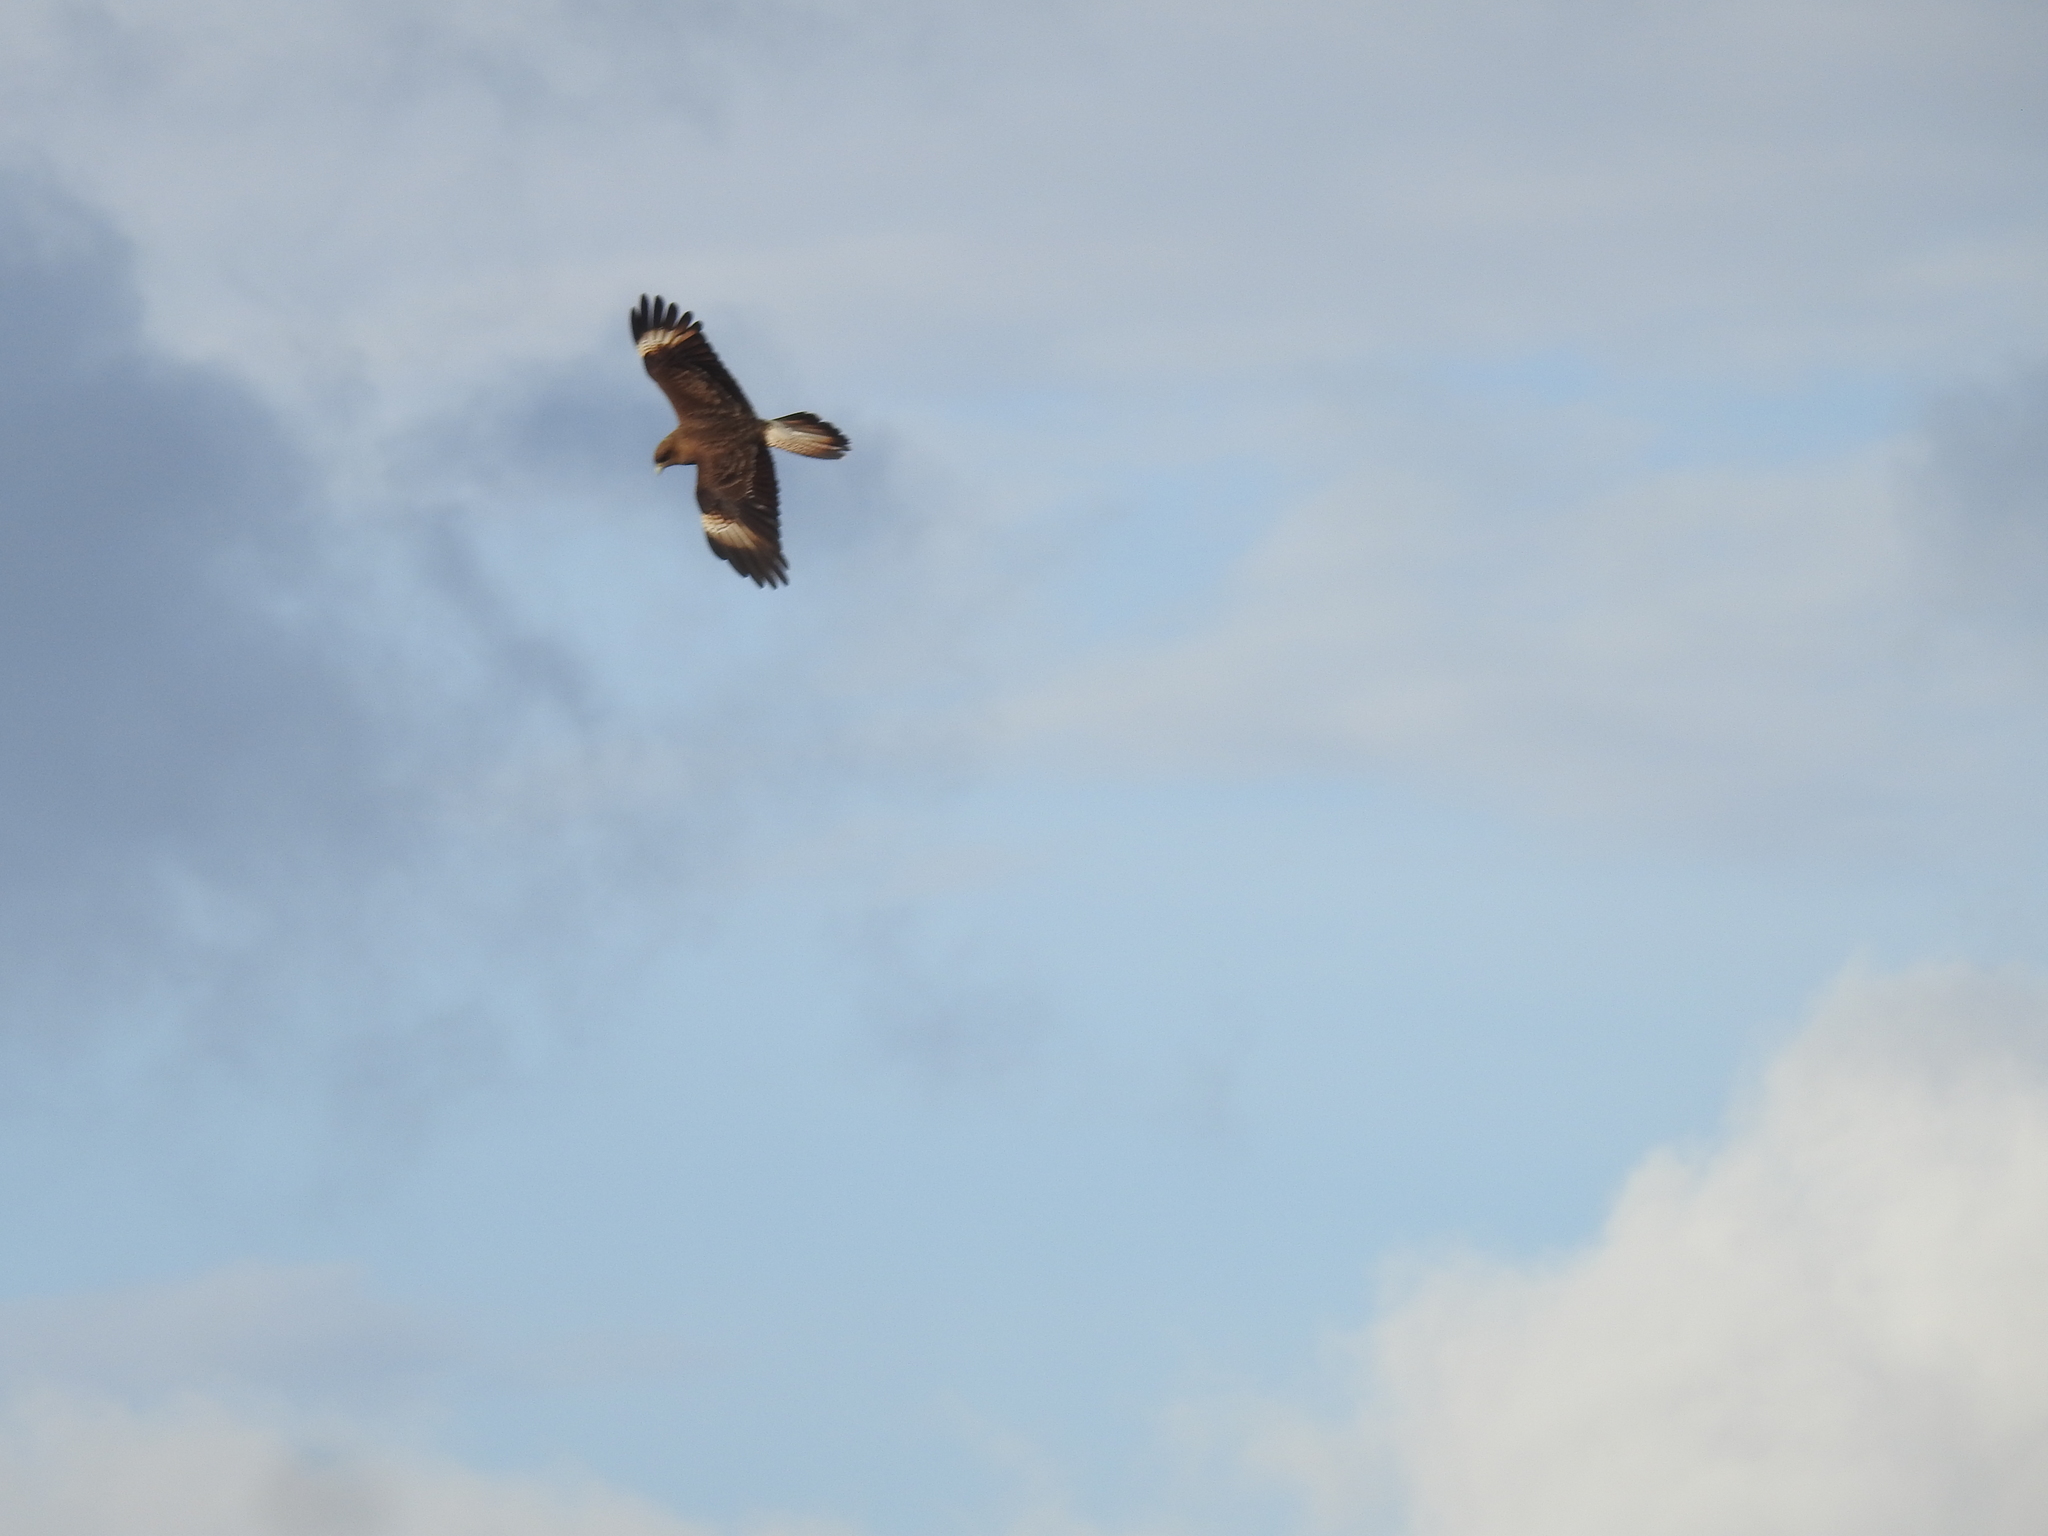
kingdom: Animalia
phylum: Chordata
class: Aves
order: Falconiformes
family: Falconidae
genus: Daptrius
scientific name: Daptrius
